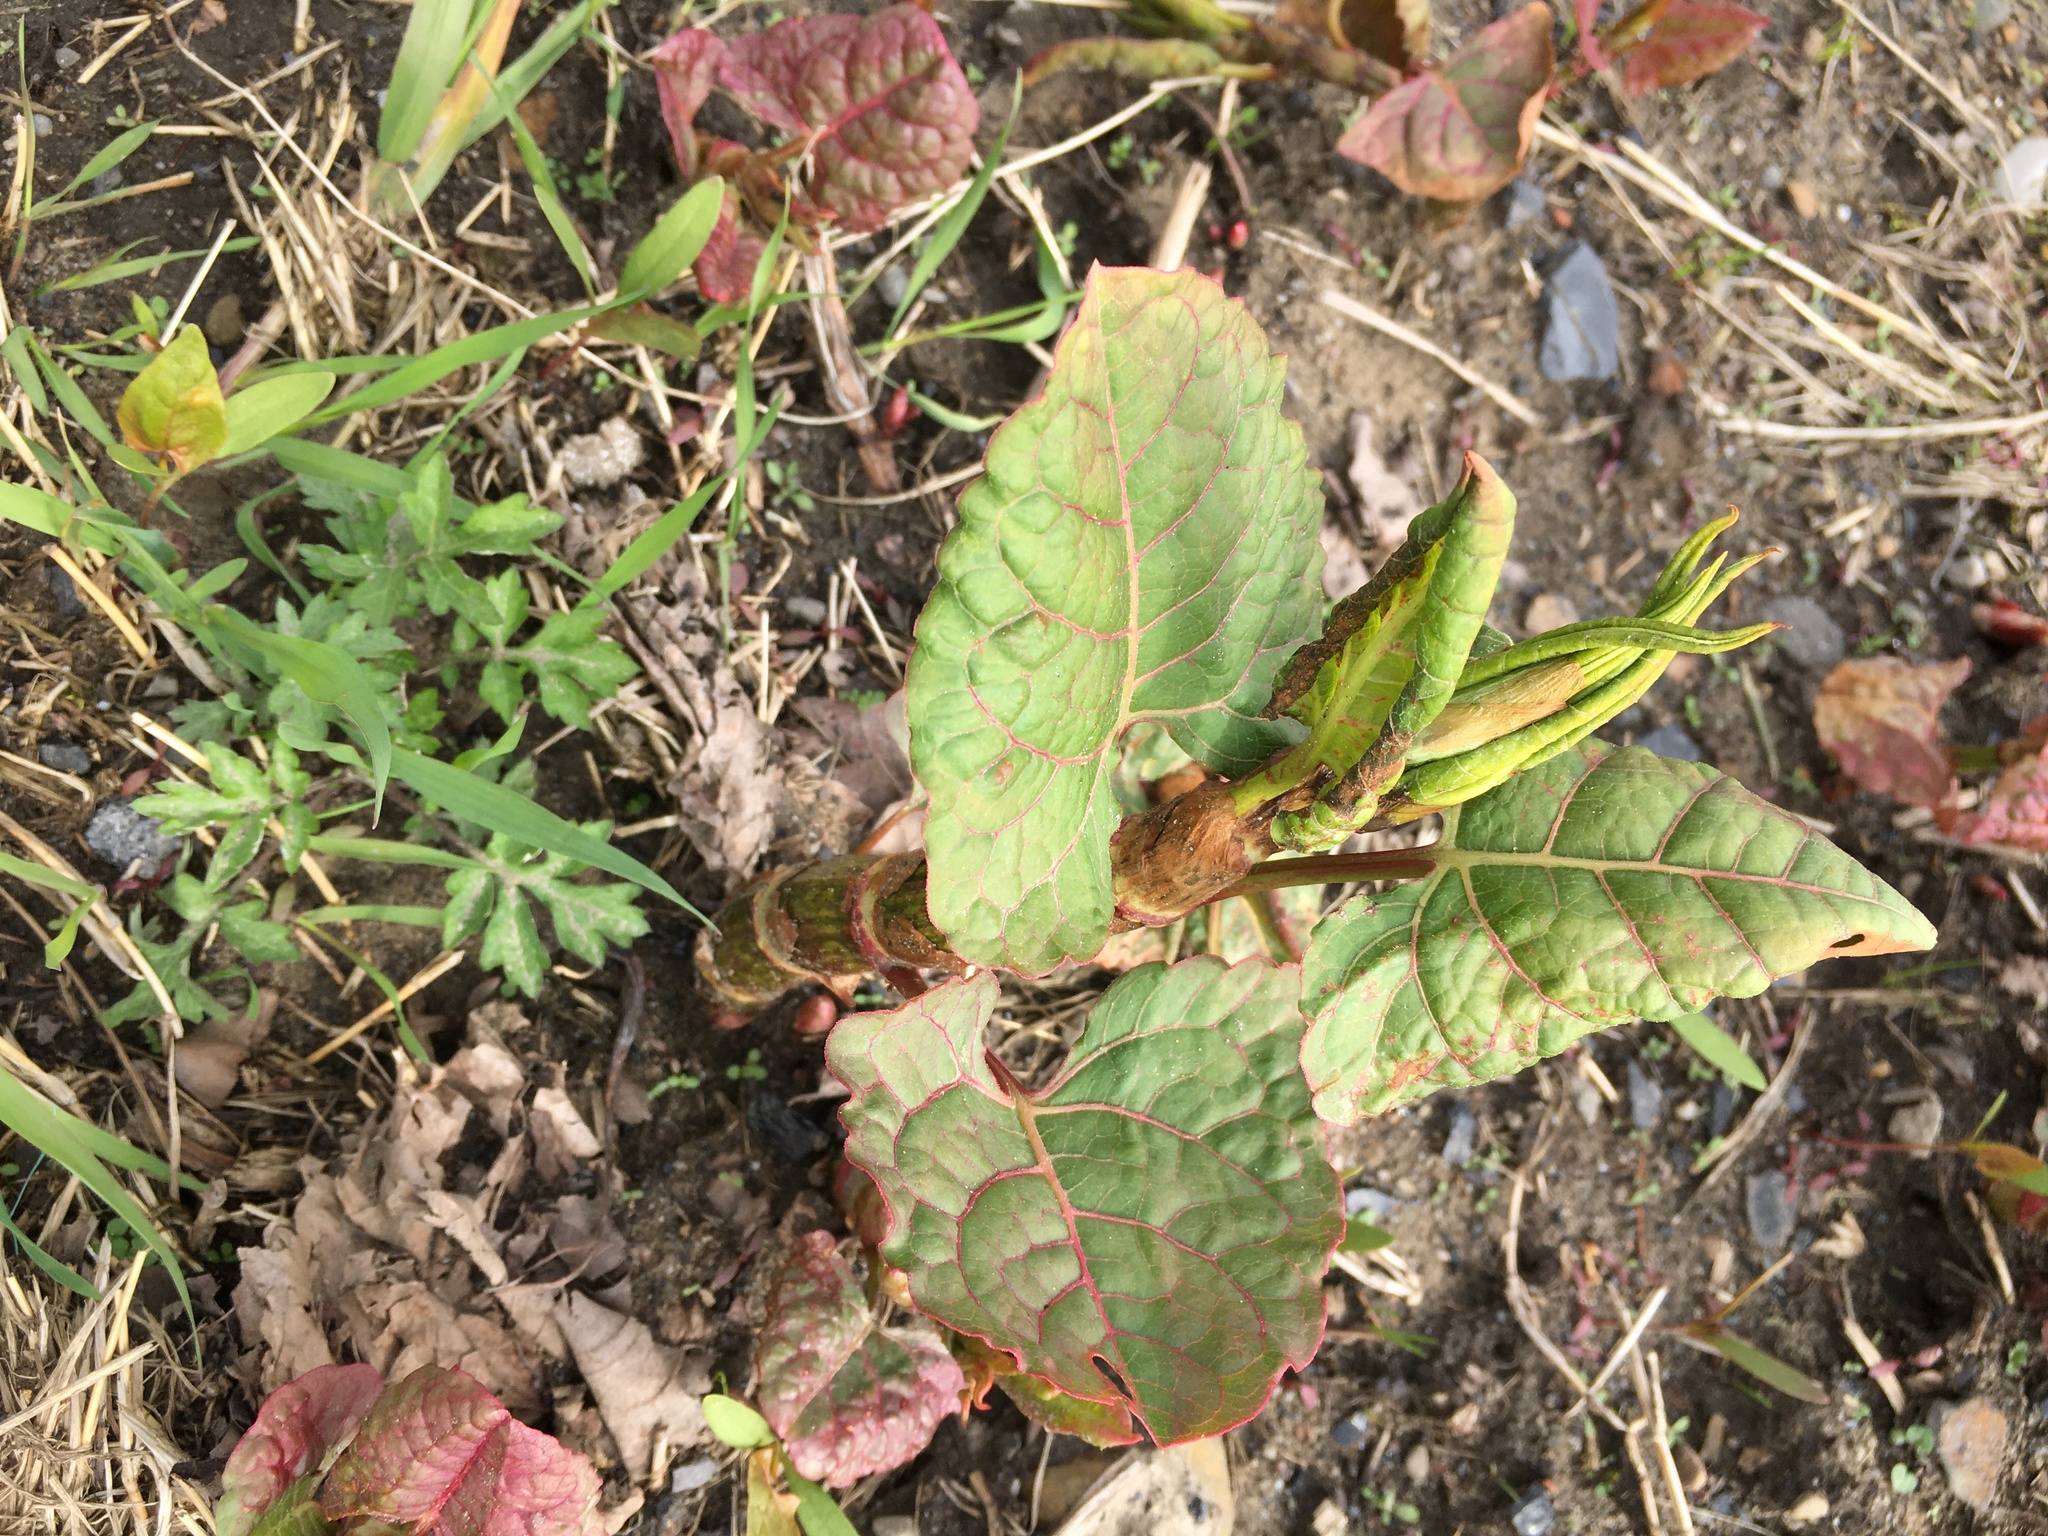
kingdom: Plantae
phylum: Tracheophyta
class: Magnoliopsida
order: Caryophyllales
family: Polygonaceae
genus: Reynoutria
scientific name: Reynoutria japonica
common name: Japanese knotweed
